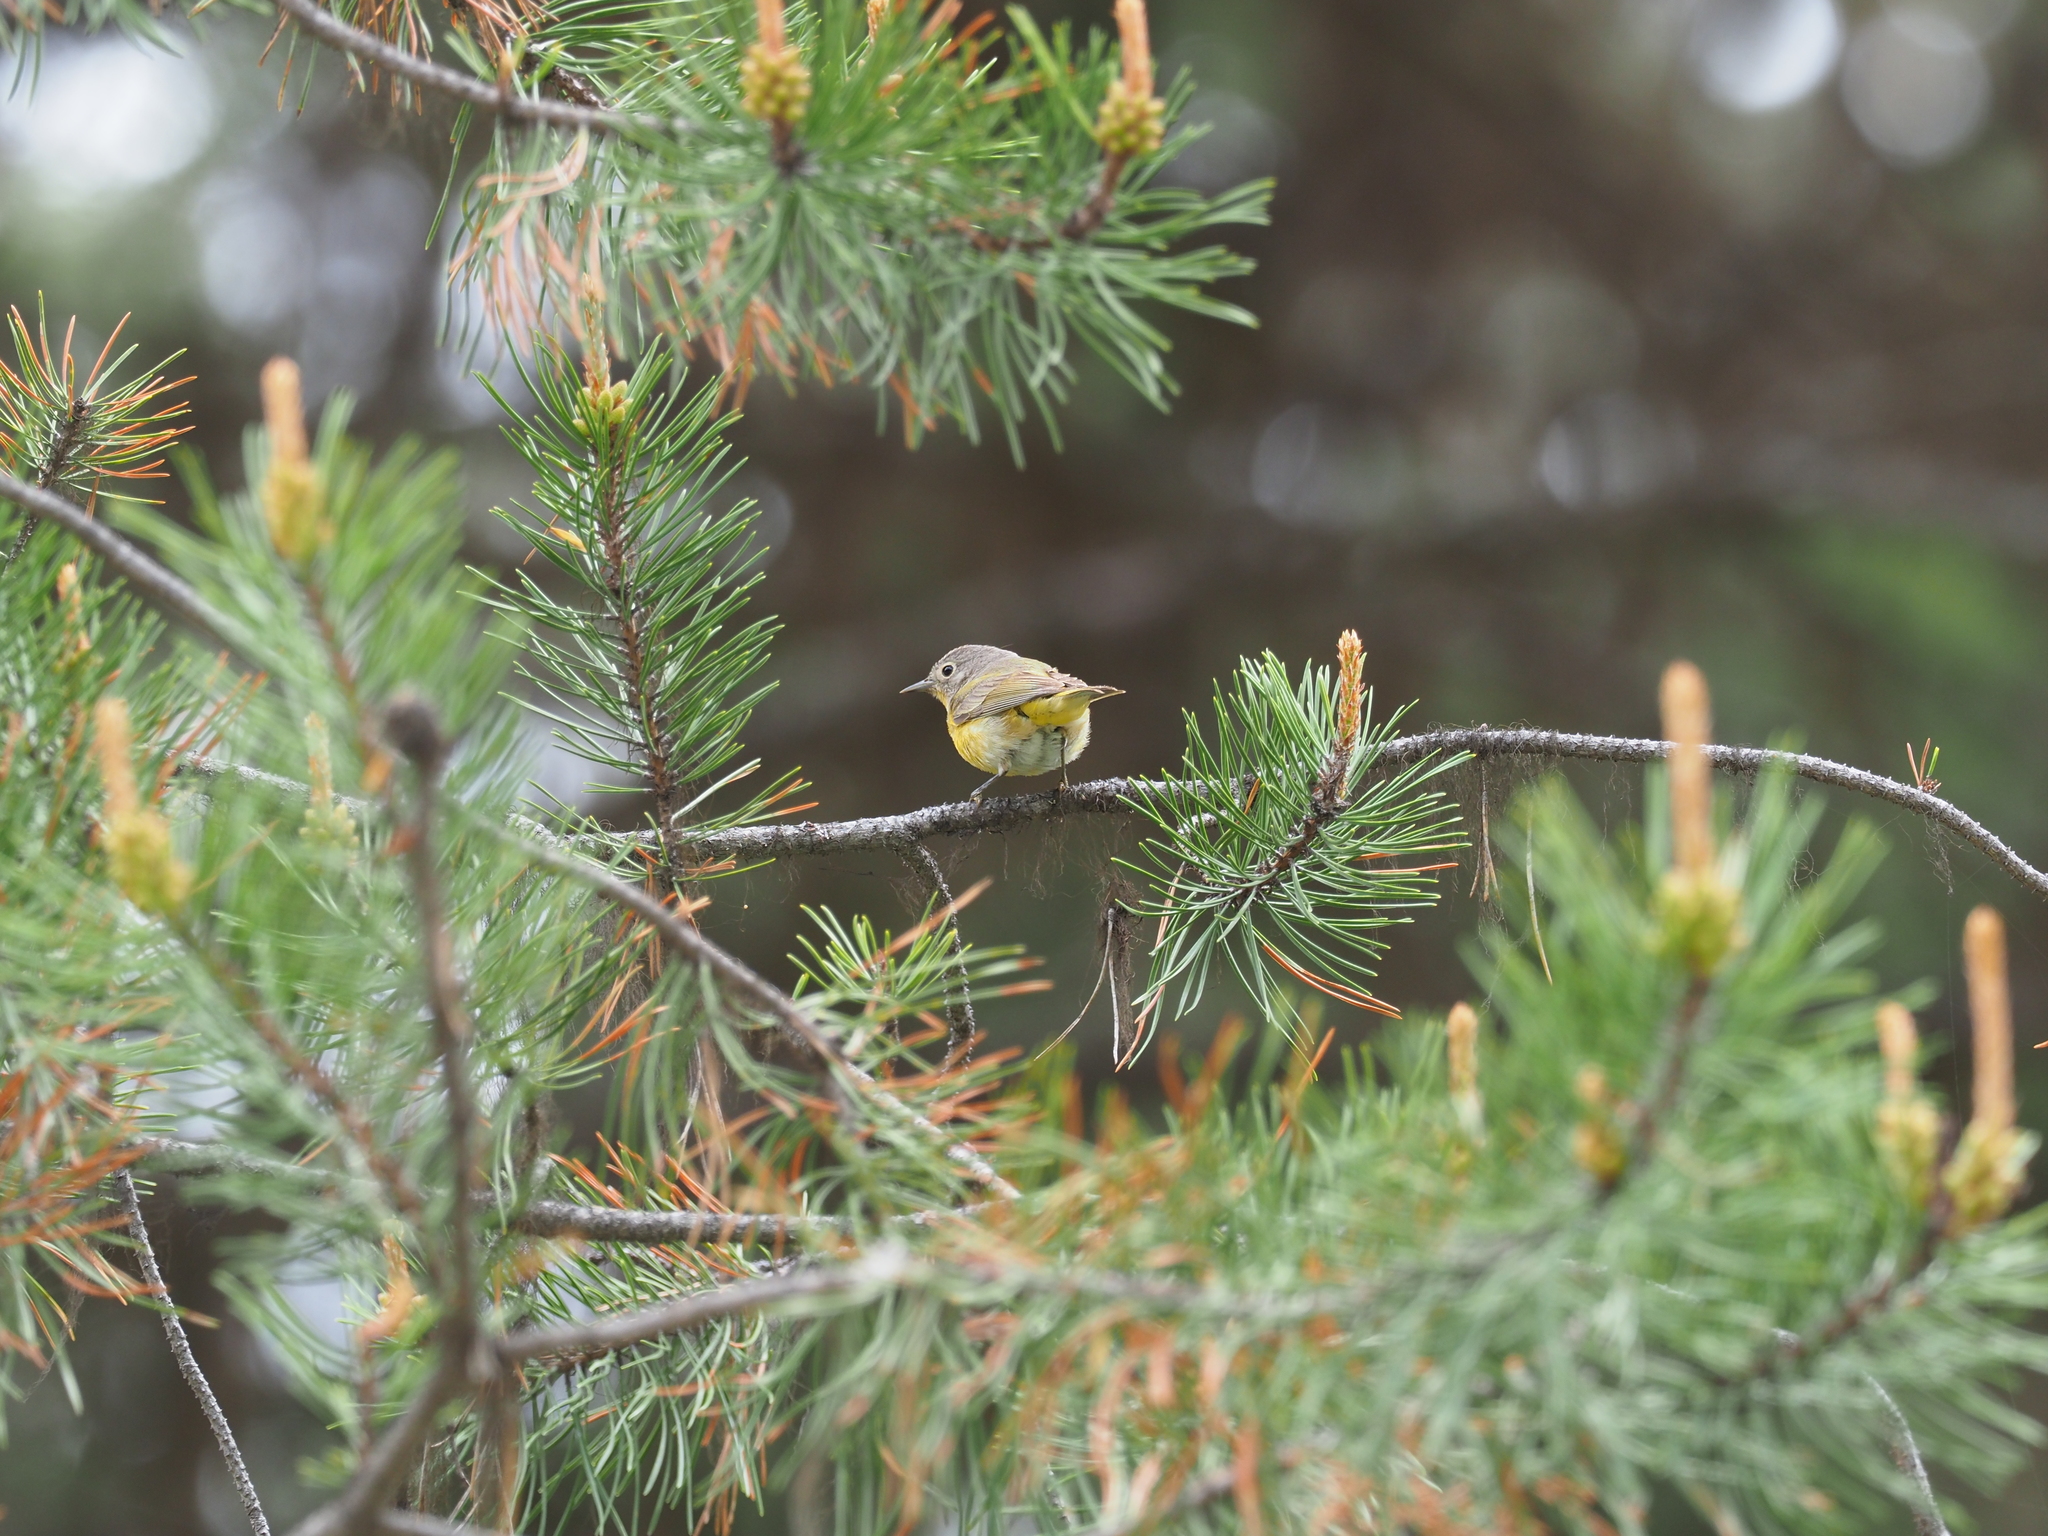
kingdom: Animalia
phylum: Chordata
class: Aves
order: Passeriformes
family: Parulidae
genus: Leiothlypis
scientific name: Leiothlypis ruficapilla
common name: Nashville warbler
